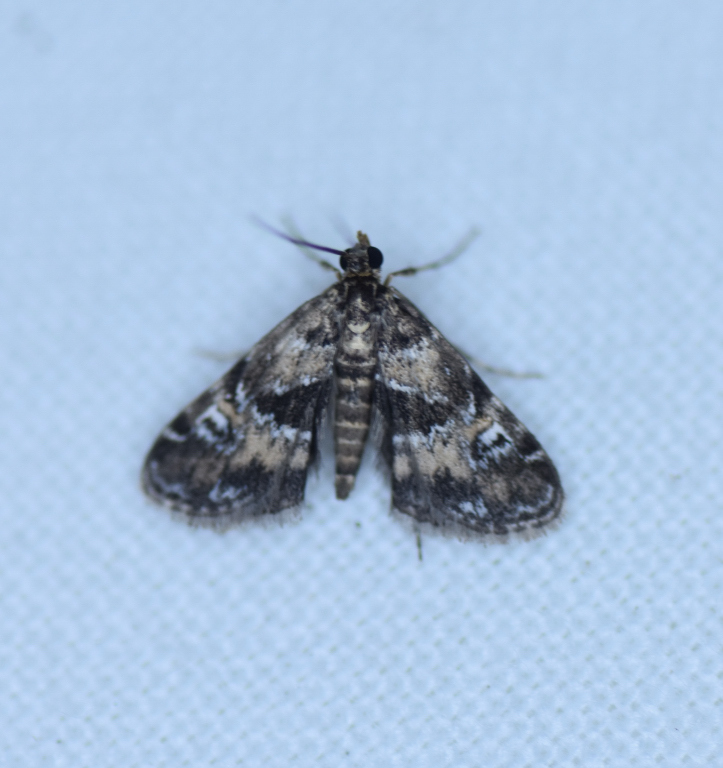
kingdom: Animalia
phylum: Arthropoda
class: Insecta
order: Lepidoptera
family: Crambidae
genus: Elophila
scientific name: Elophila obliteralis
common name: Waterlily leafcutter moth
